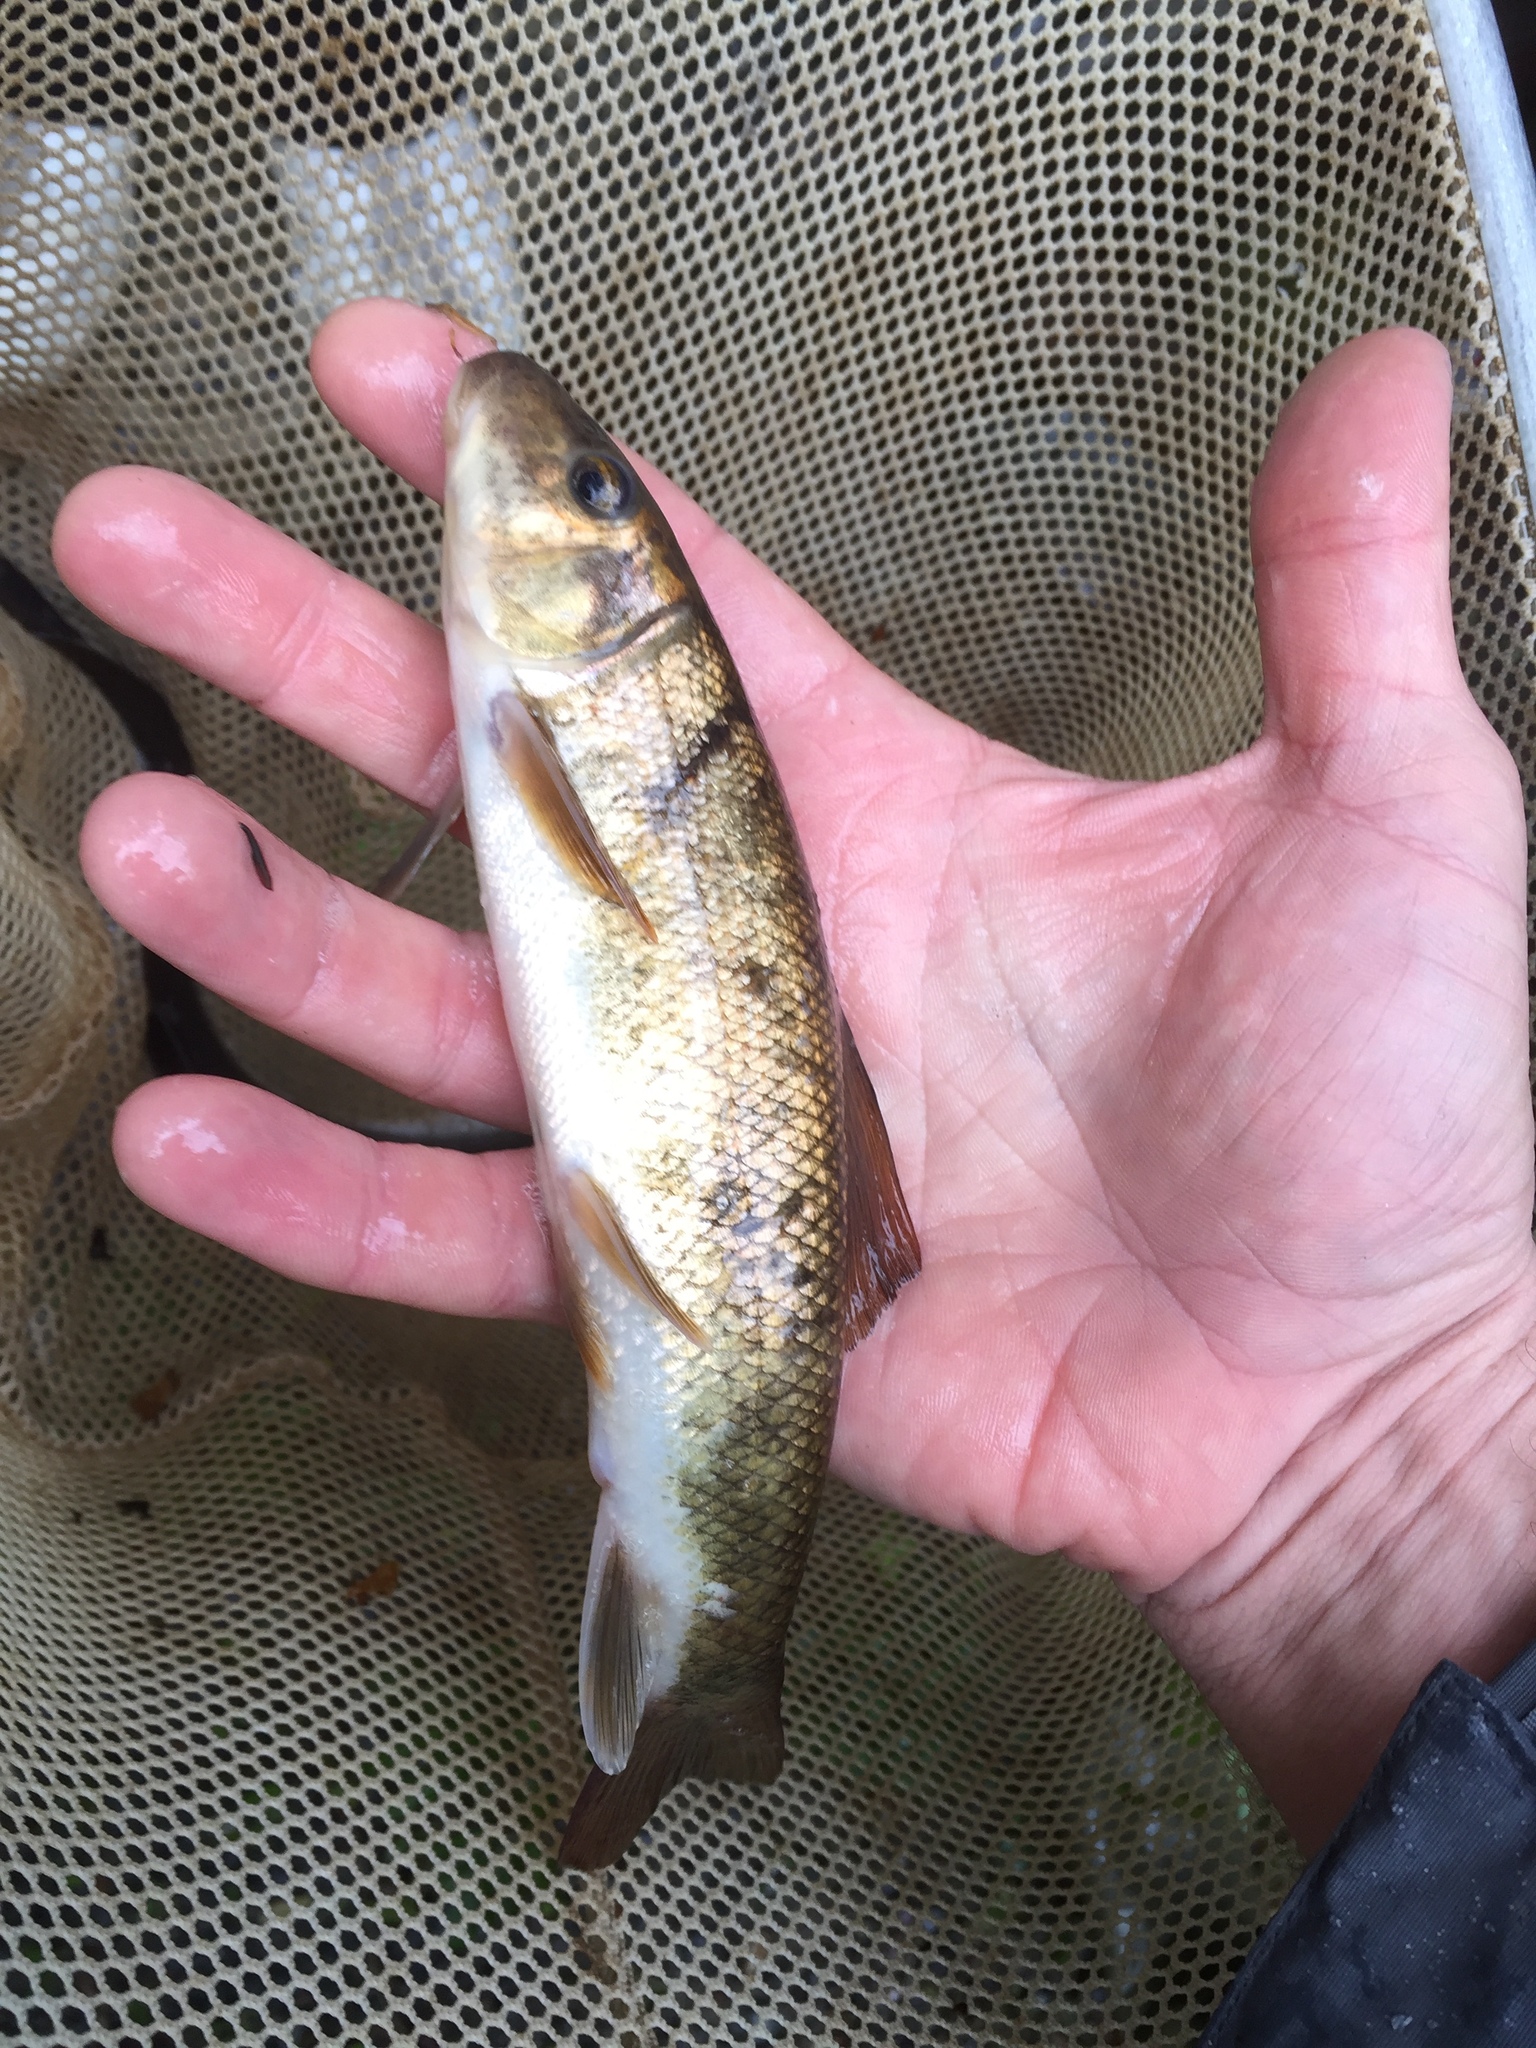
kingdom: Animalia
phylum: Chordata
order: Cypriniformes
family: Catostomidae
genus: Catostomus
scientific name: Catostomus commersonii
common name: White sucker
